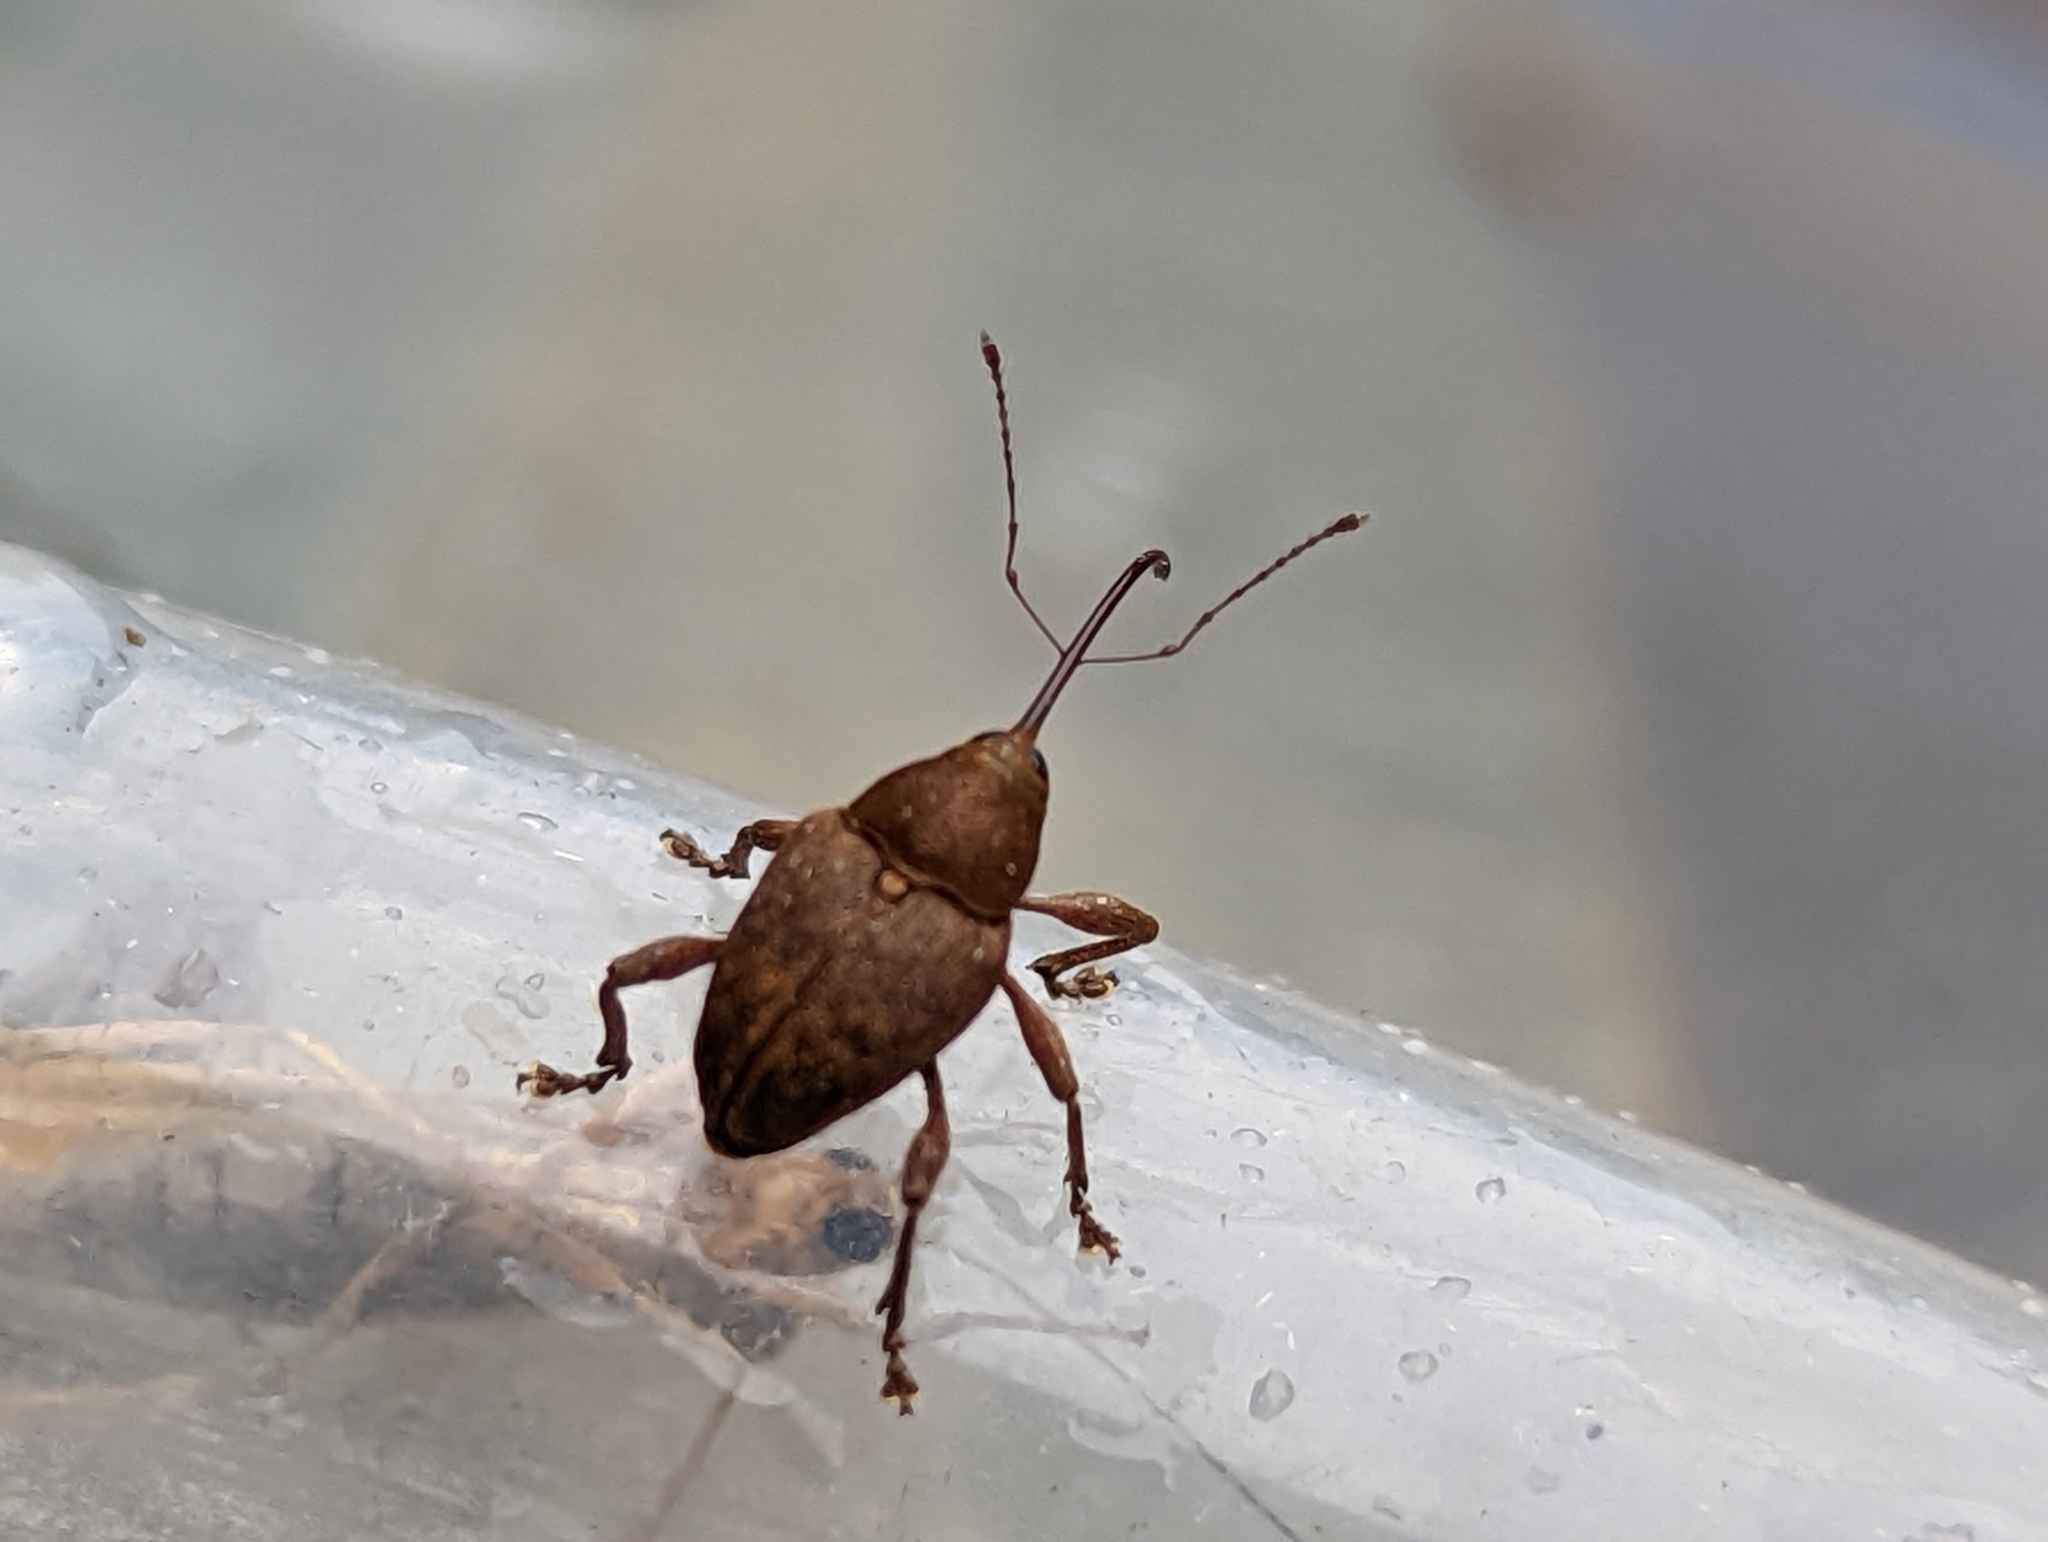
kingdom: Animalia
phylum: Arthropoda
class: Insecta
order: Coleoptera
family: Curculionidae
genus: Curculio
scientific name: Curculio glandium
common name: Acorn weevil
